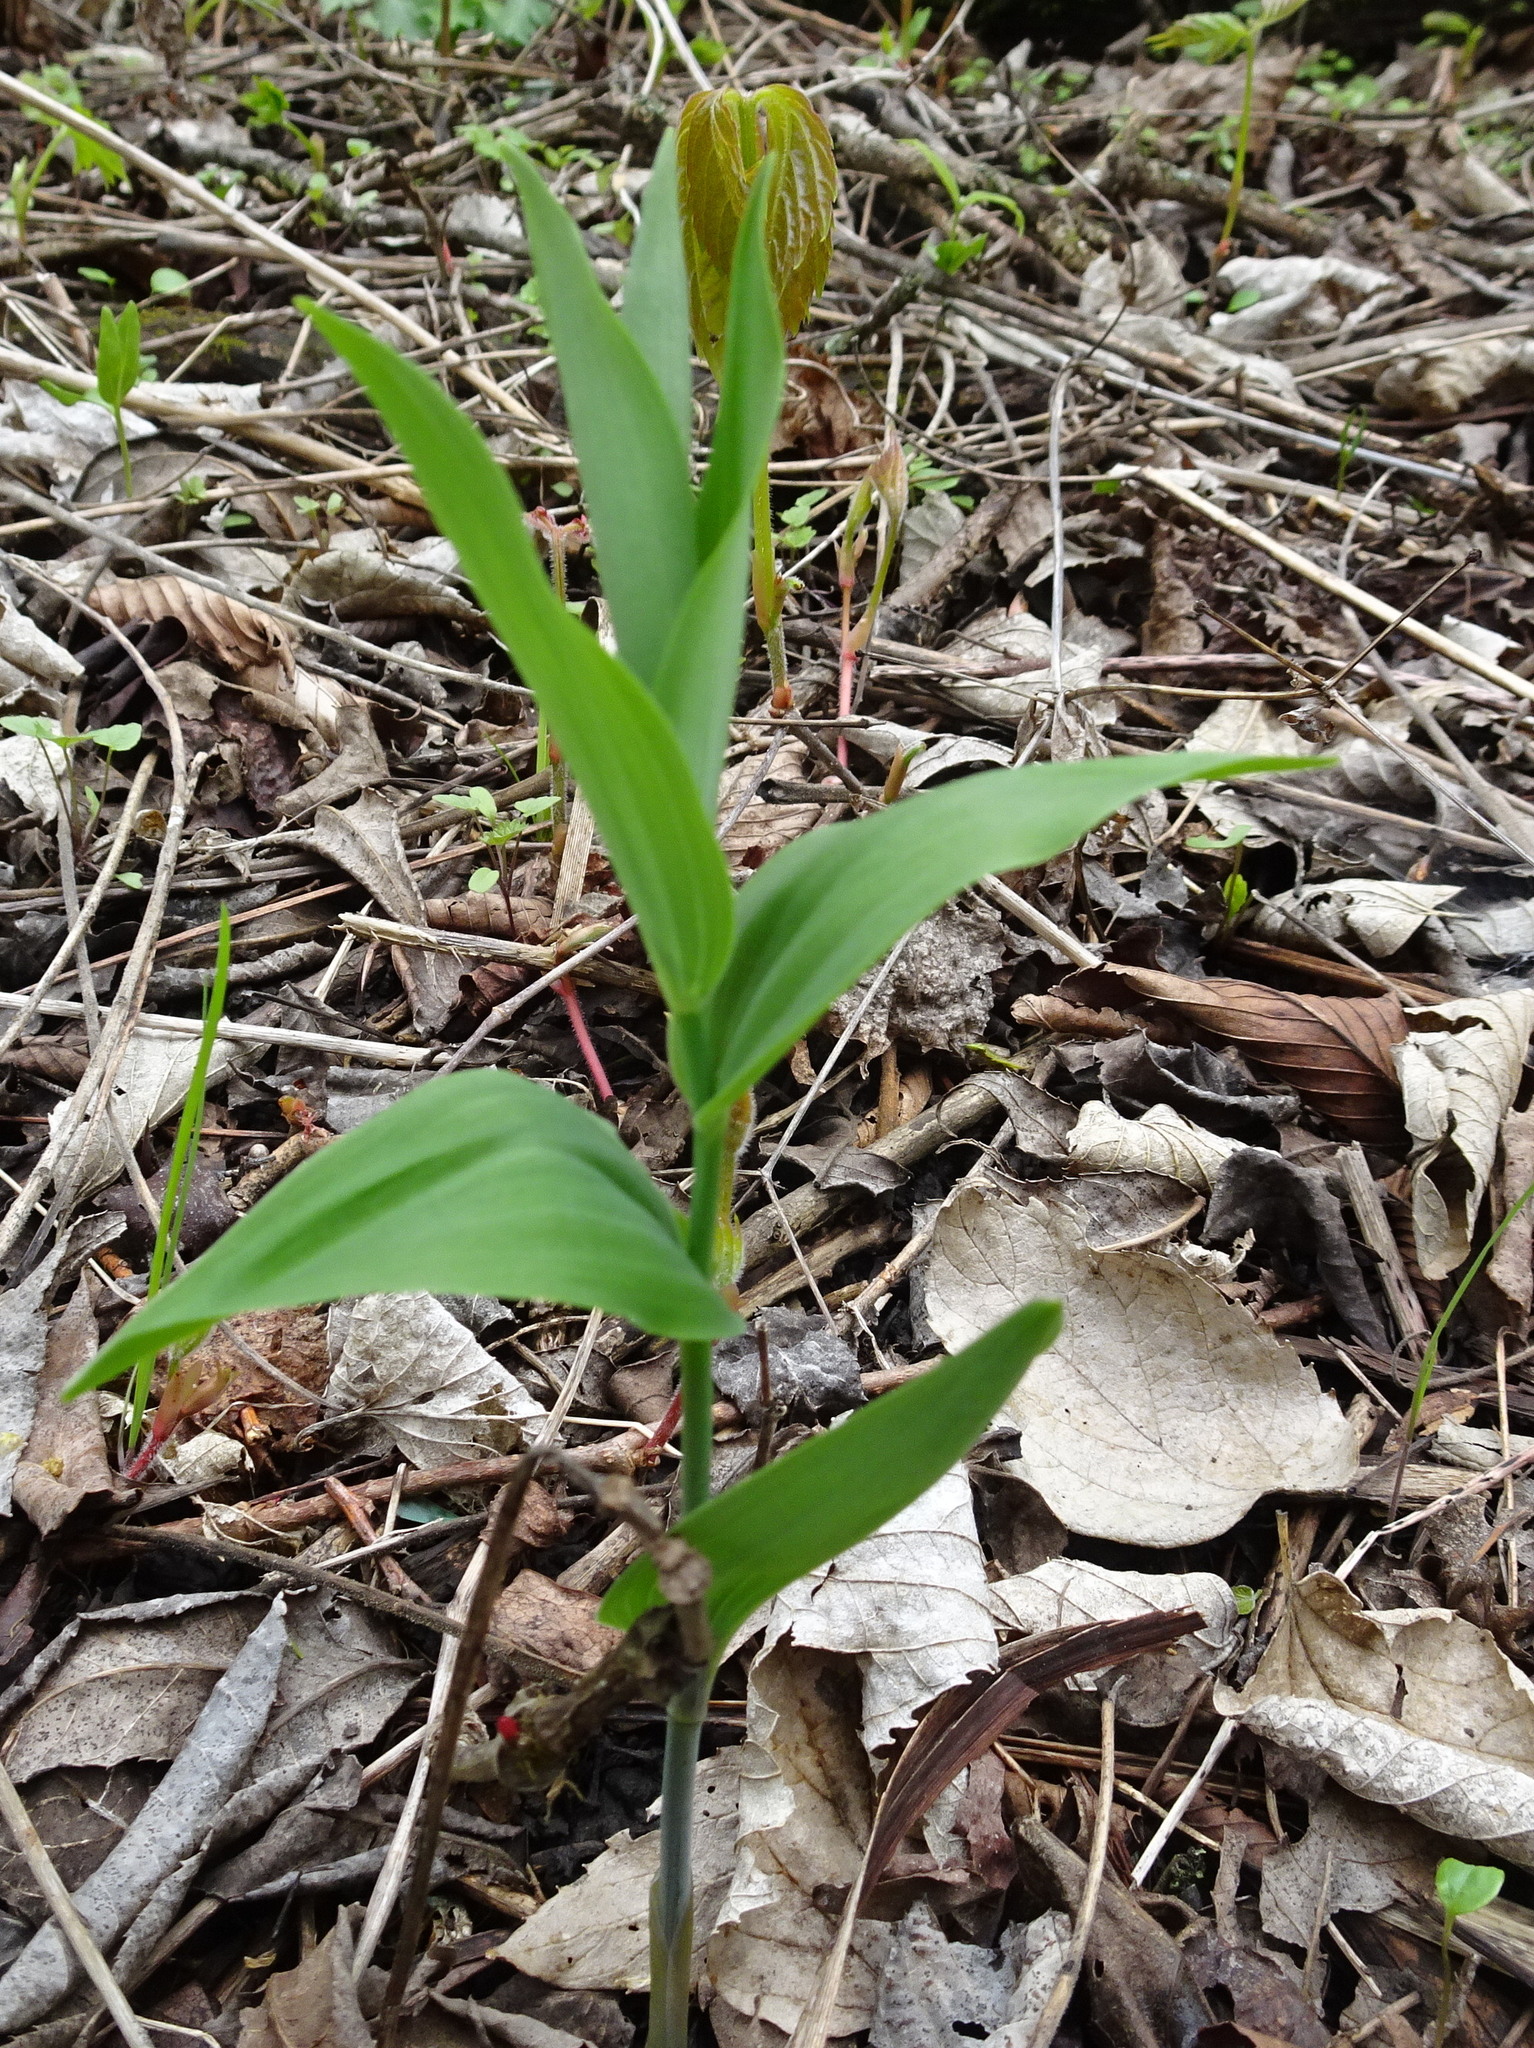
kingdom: Plantae
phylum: Tracheophyta
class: Liliopsida
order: Asparagales
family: Asparagaceae
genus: Polygonatum
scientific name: Polygonatum biflorum
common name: American solomon's-seal
